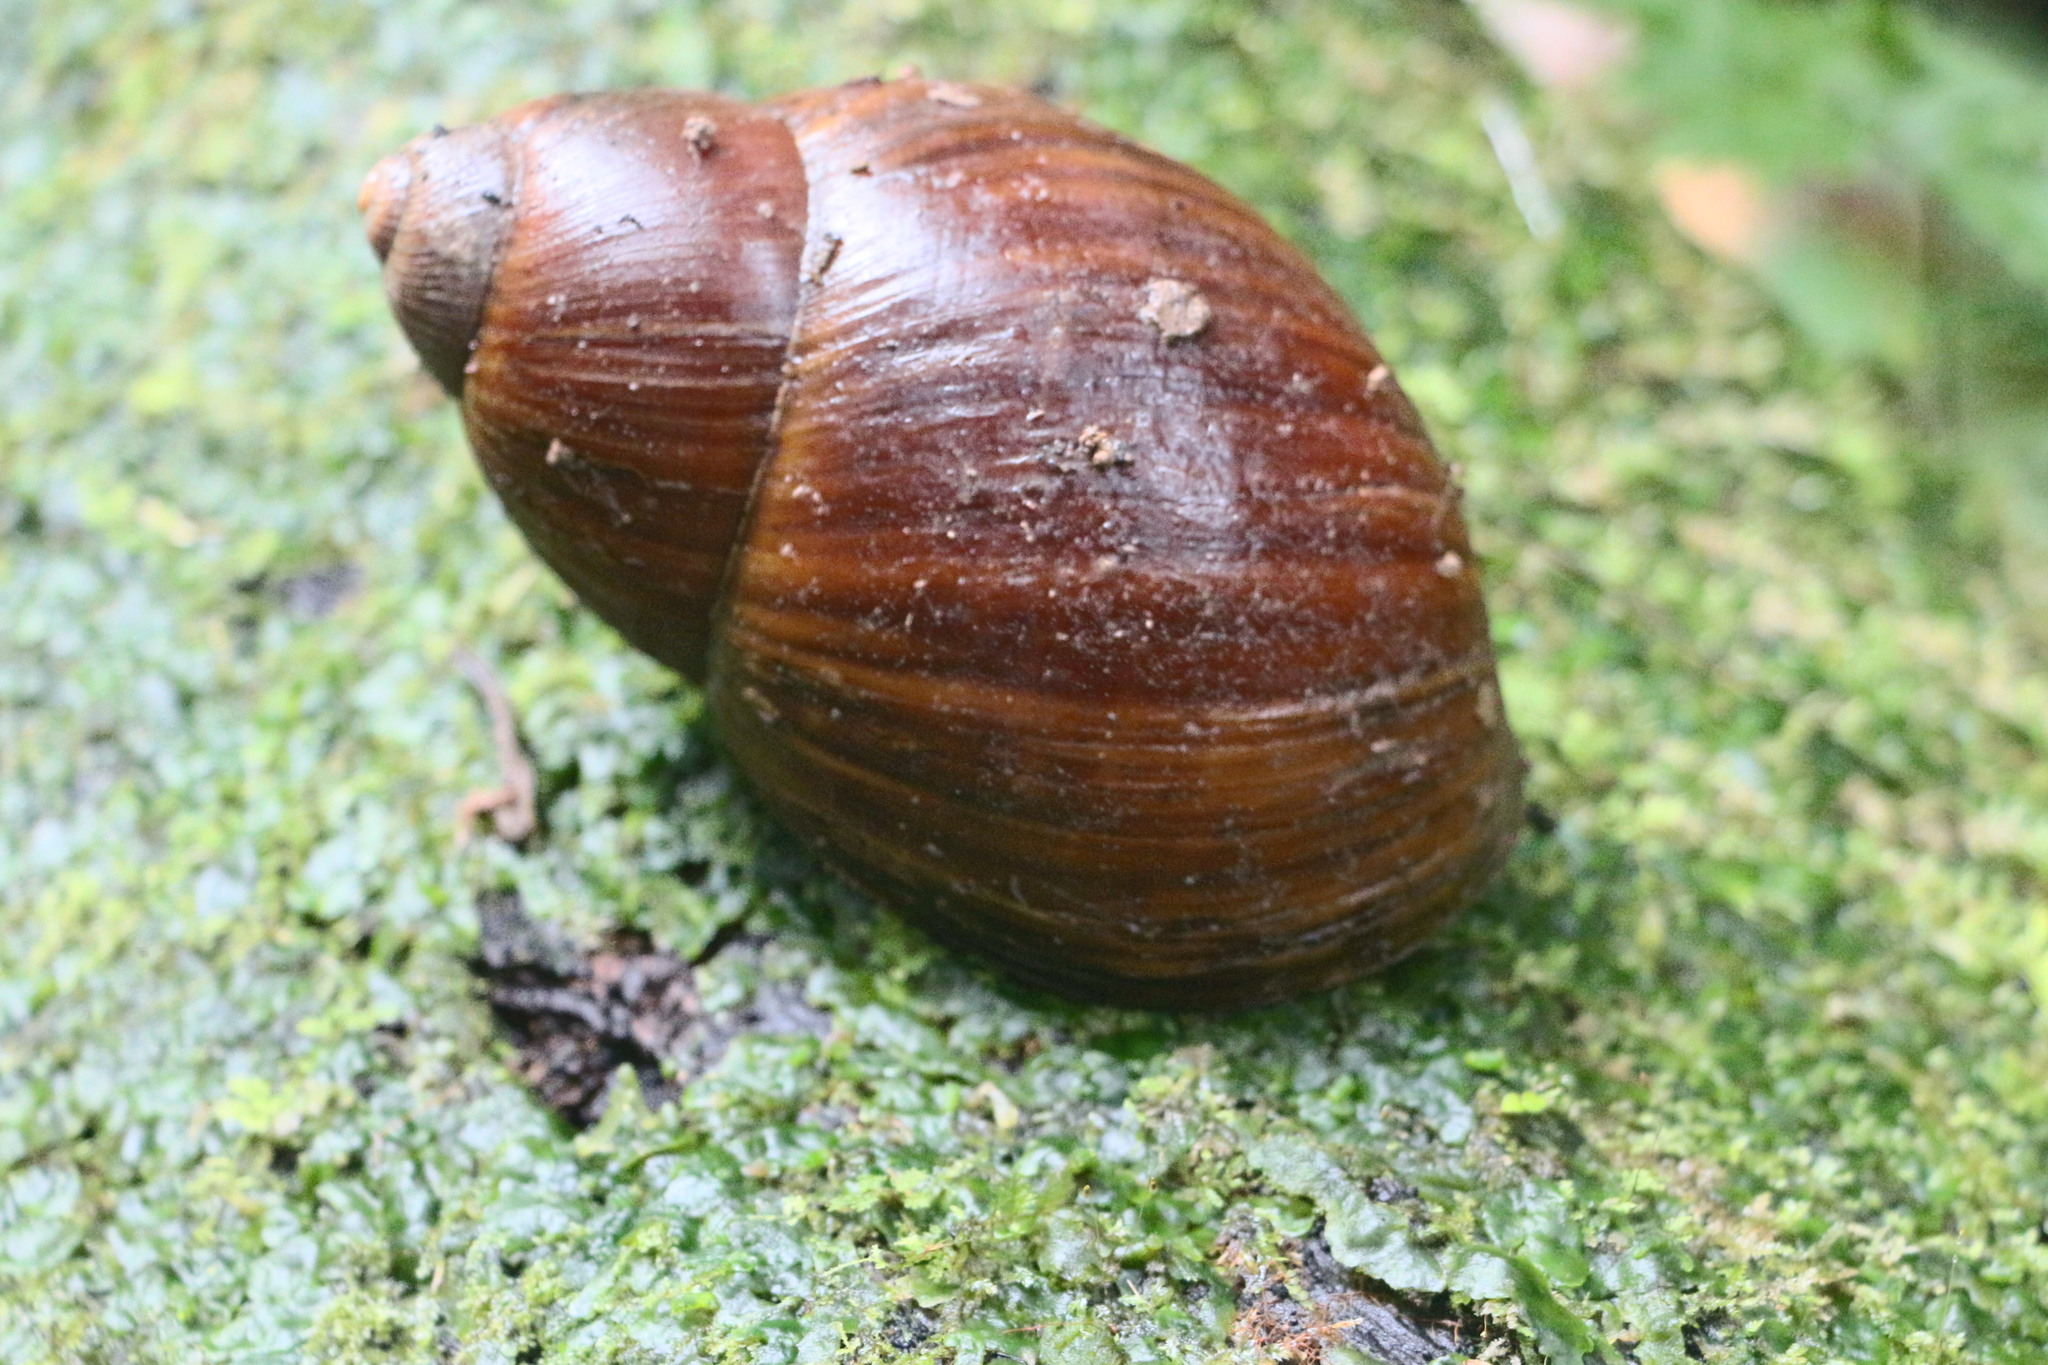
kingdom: Animalia
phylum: Mollusca
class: Gastropoda
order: Stylommatophora
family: Strophocheilidae
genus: Megalobulimus
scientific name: Megalobulimus popelairianus
